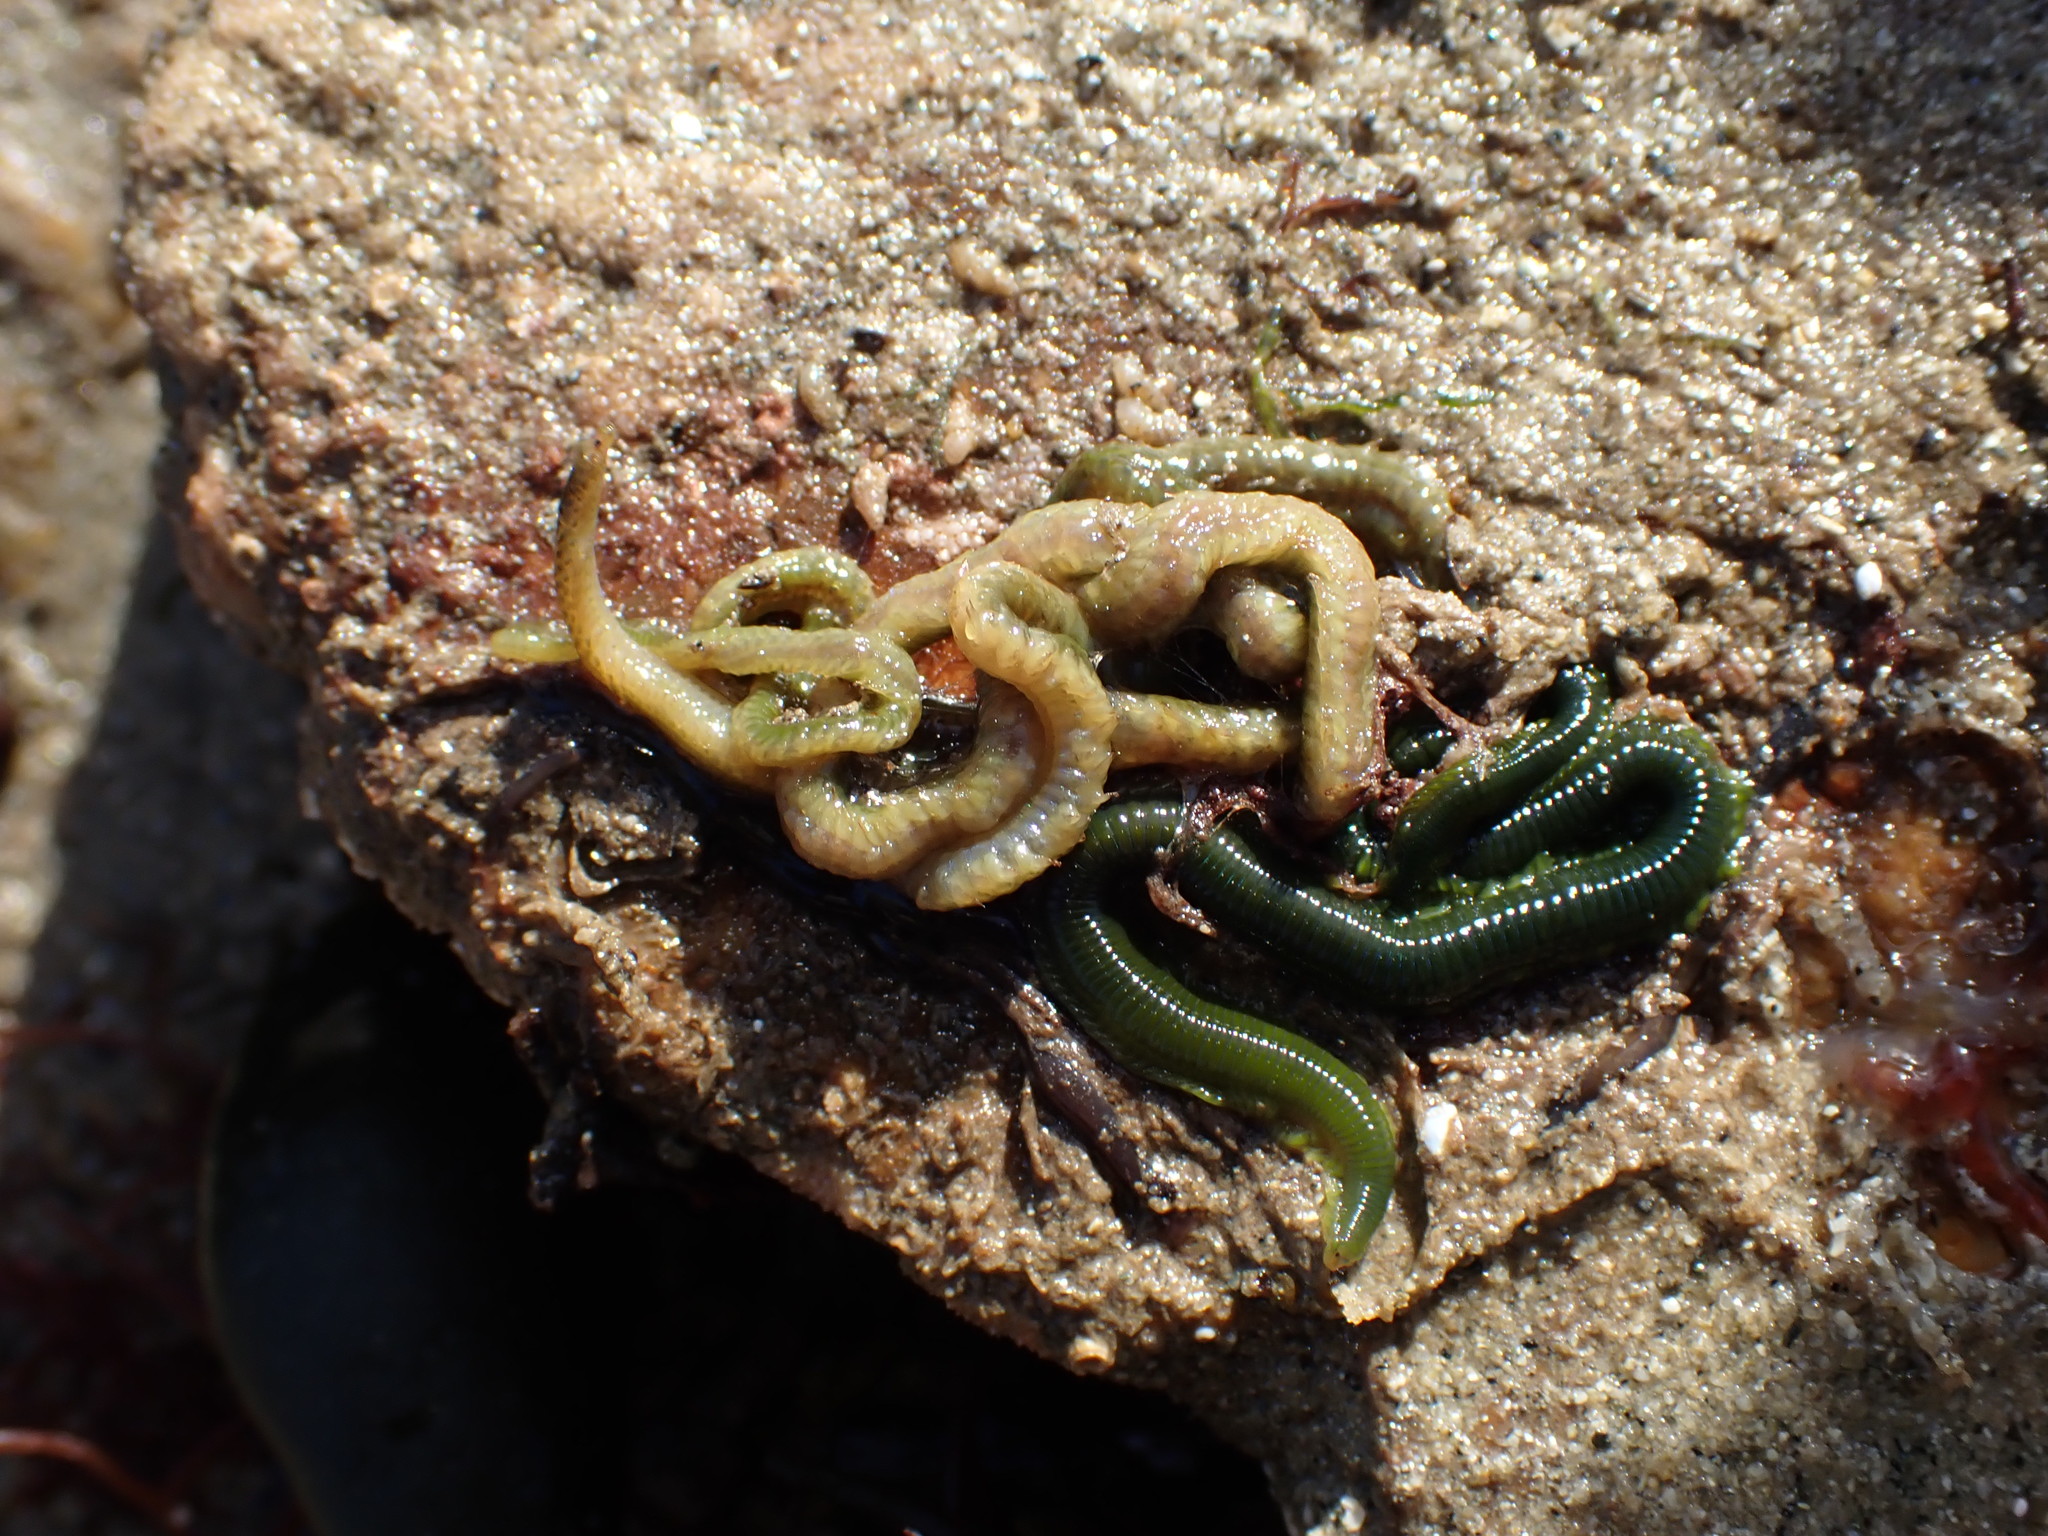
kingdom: Animalia
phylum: Annelida
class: Polychaeta
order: Phyllodocida
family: Phyllodocidae
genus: Eulalia
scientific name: Eulalia clavigera
